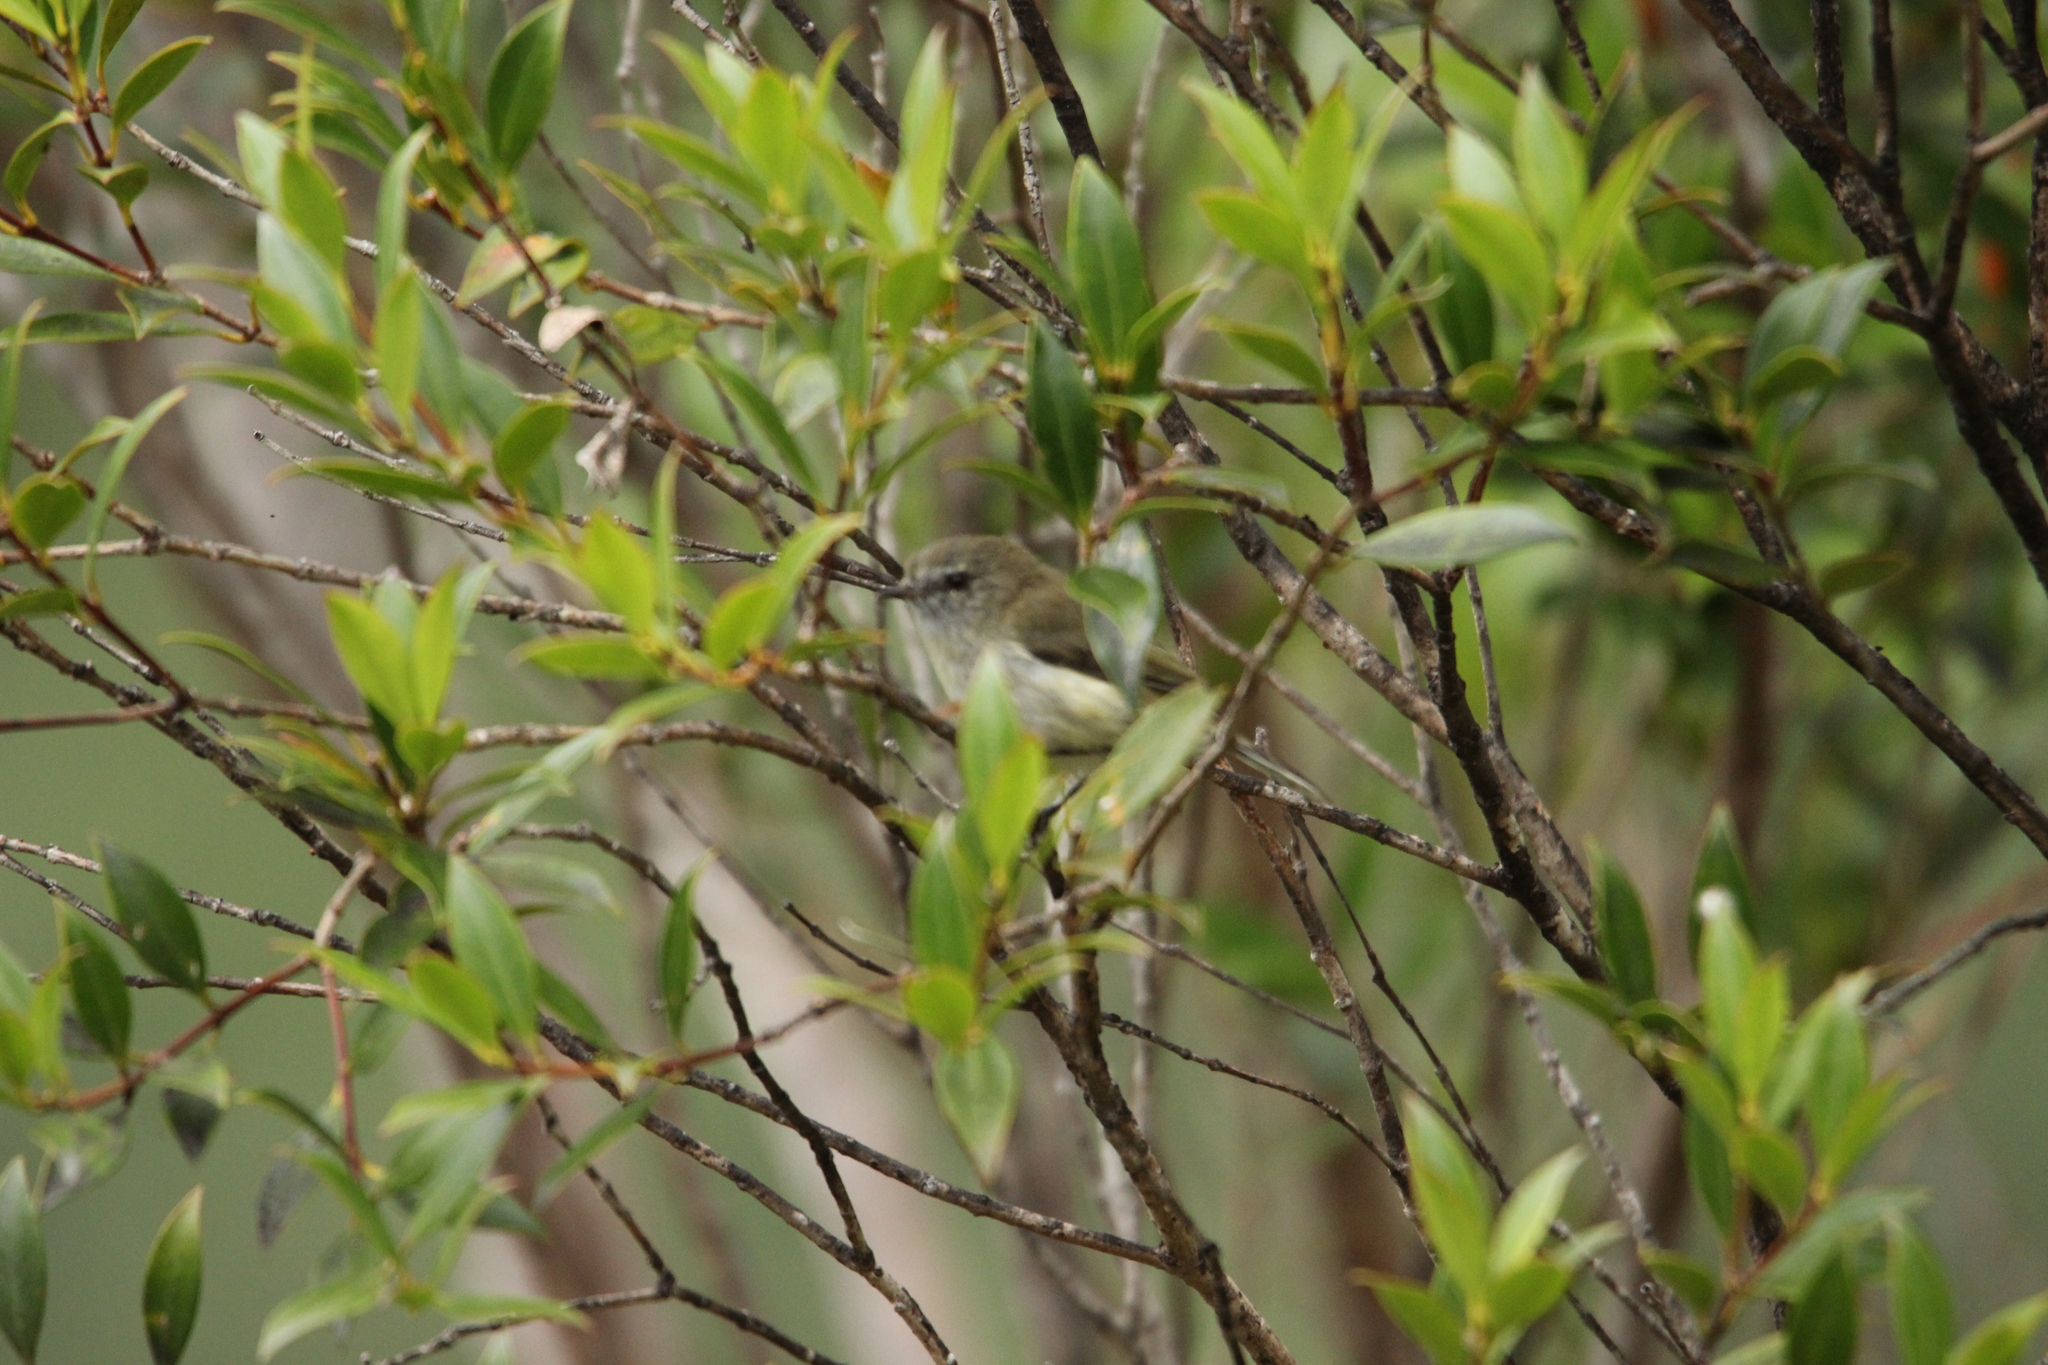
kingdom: Animalia
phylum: Chordata
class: Aves
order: Passeriformes
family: Acanthizidae
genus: Gerygone
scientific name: Gerygone igata
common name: Grey gerygone
